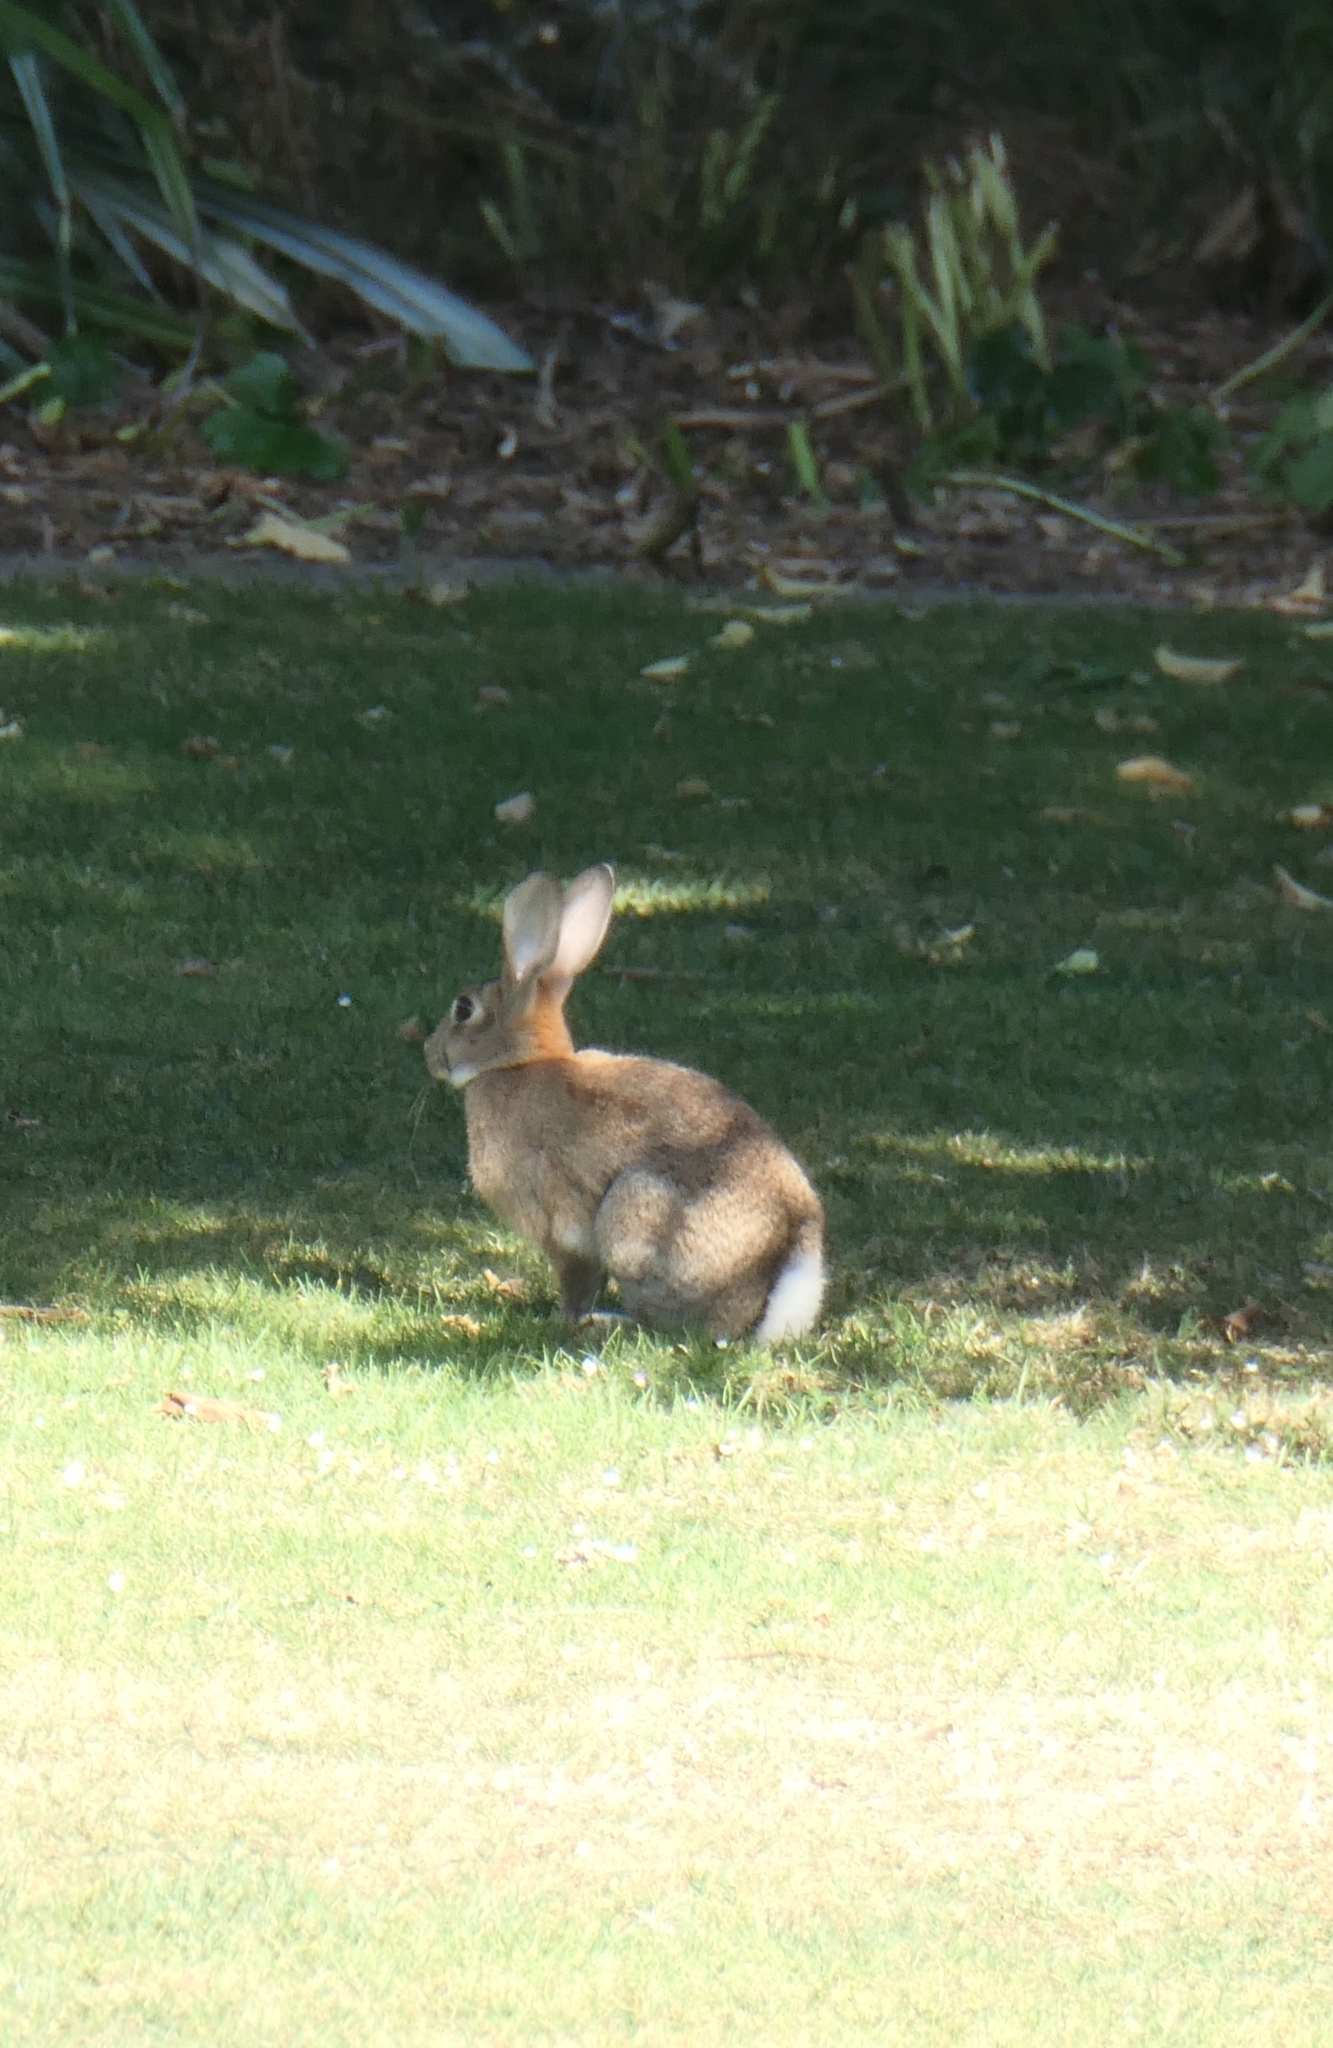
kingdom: Animalia
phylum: Chordata
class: Mammalia
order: Lagomorpha
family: Leporidae
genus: Oryctolagus
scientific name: Oryctolagus cuniculus
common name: European rabbit
